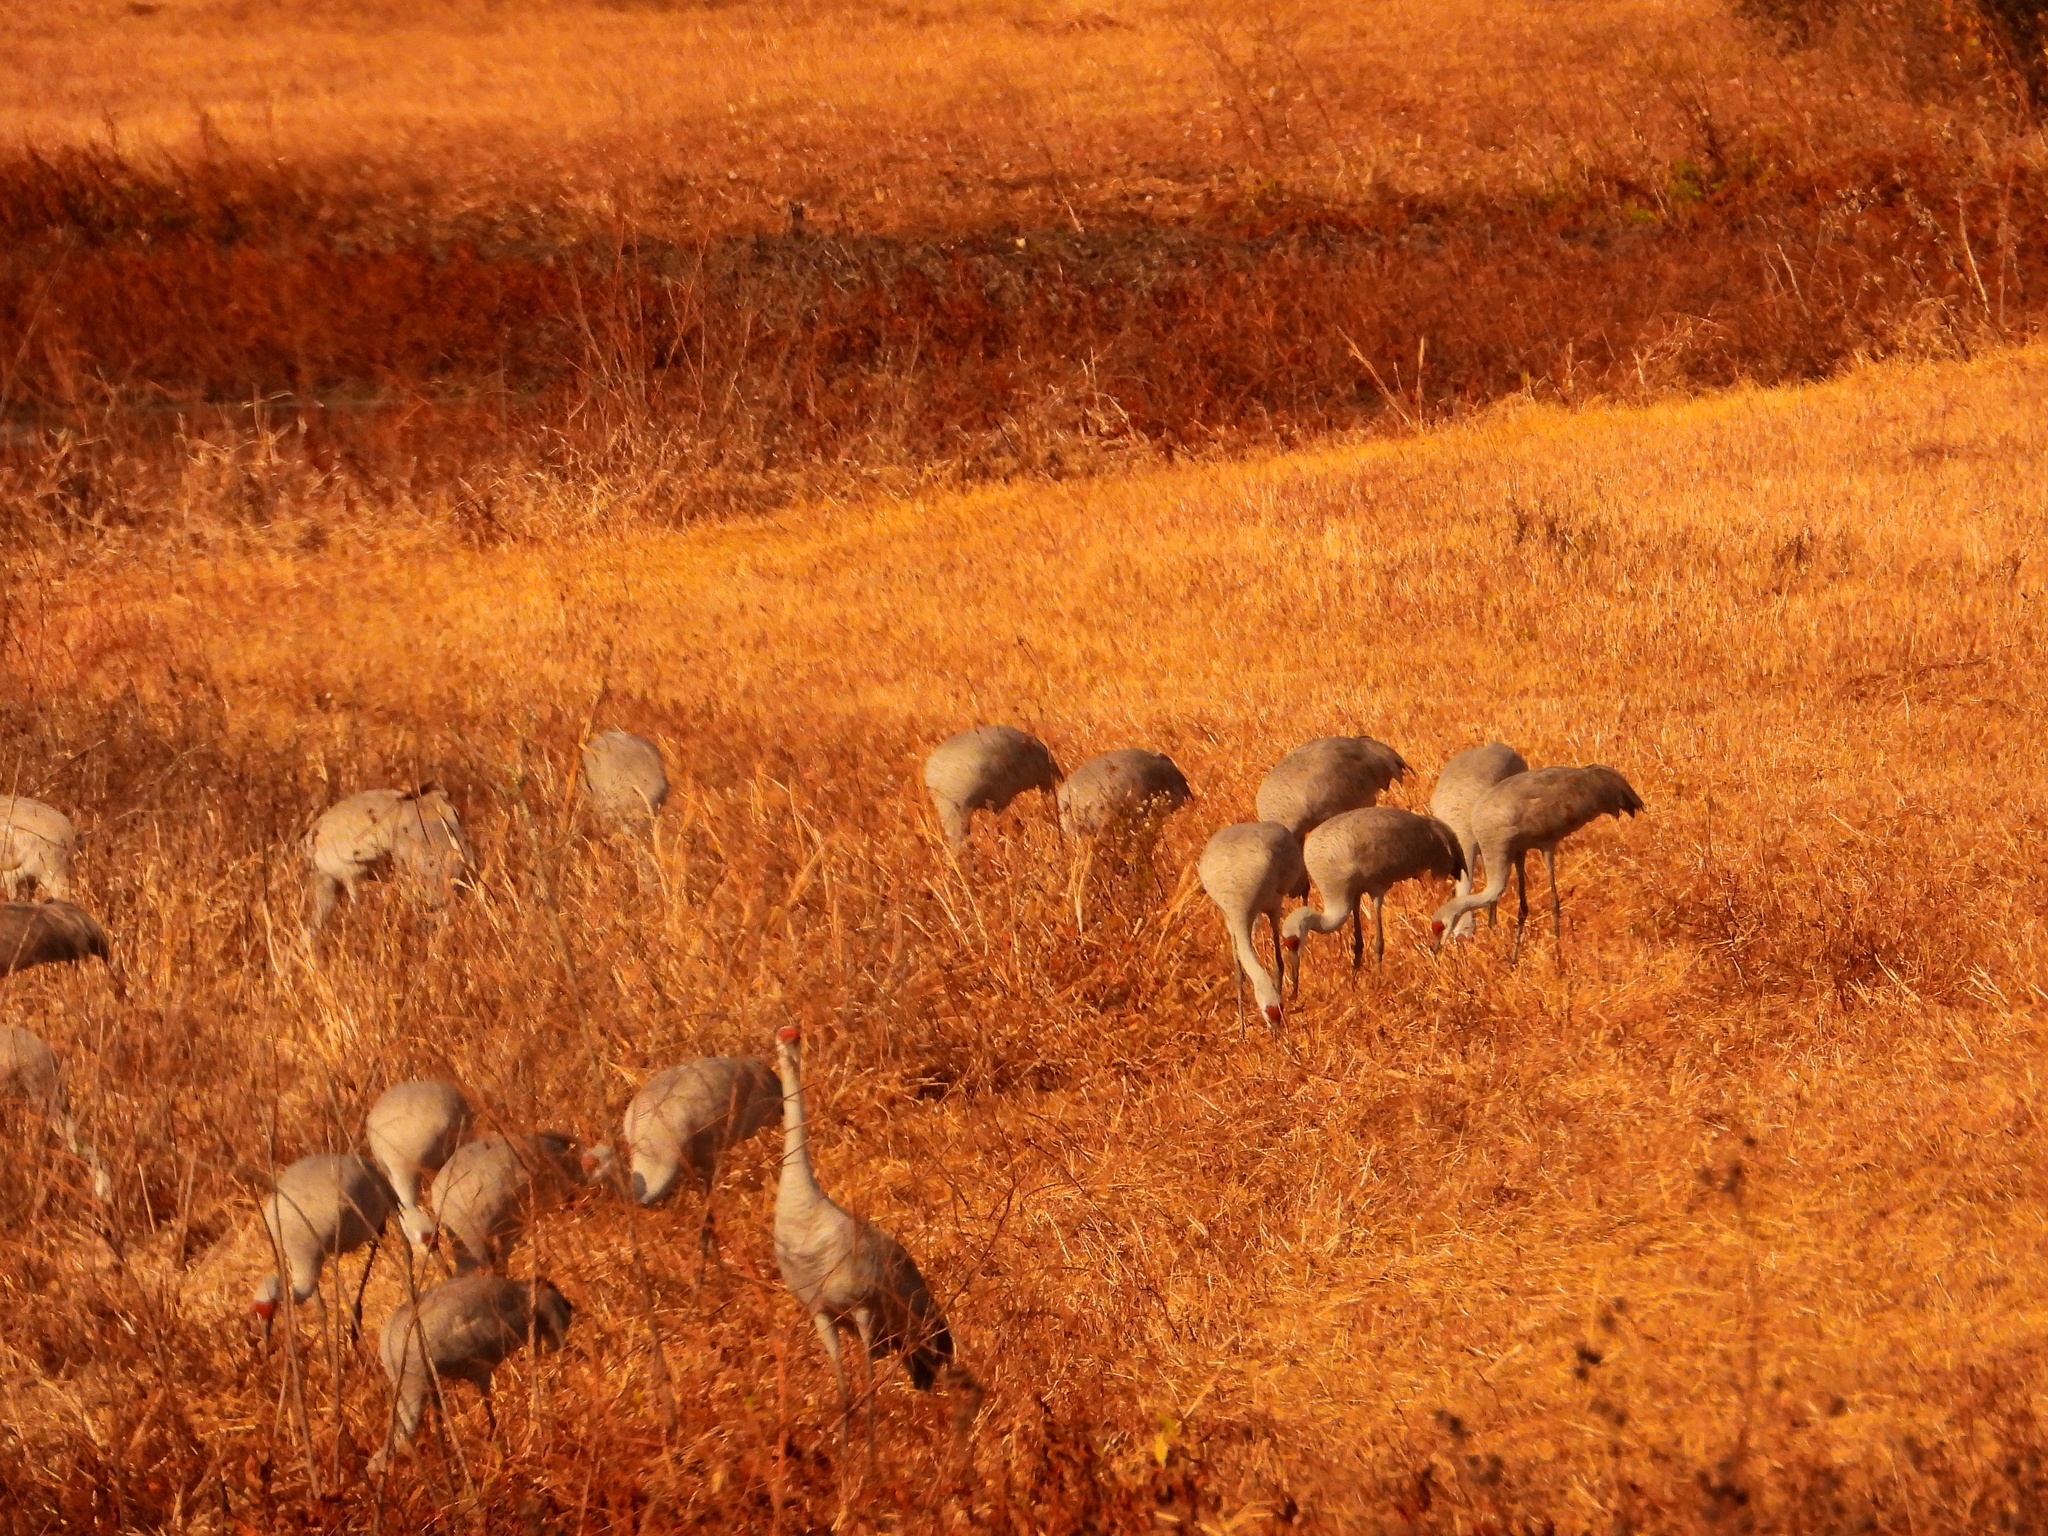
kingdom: Animalia
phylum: Chordata
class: Aves
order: Gruiformes
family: Gruidae
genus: Grus
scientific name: Grus canadensis
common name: Sandhill crane
